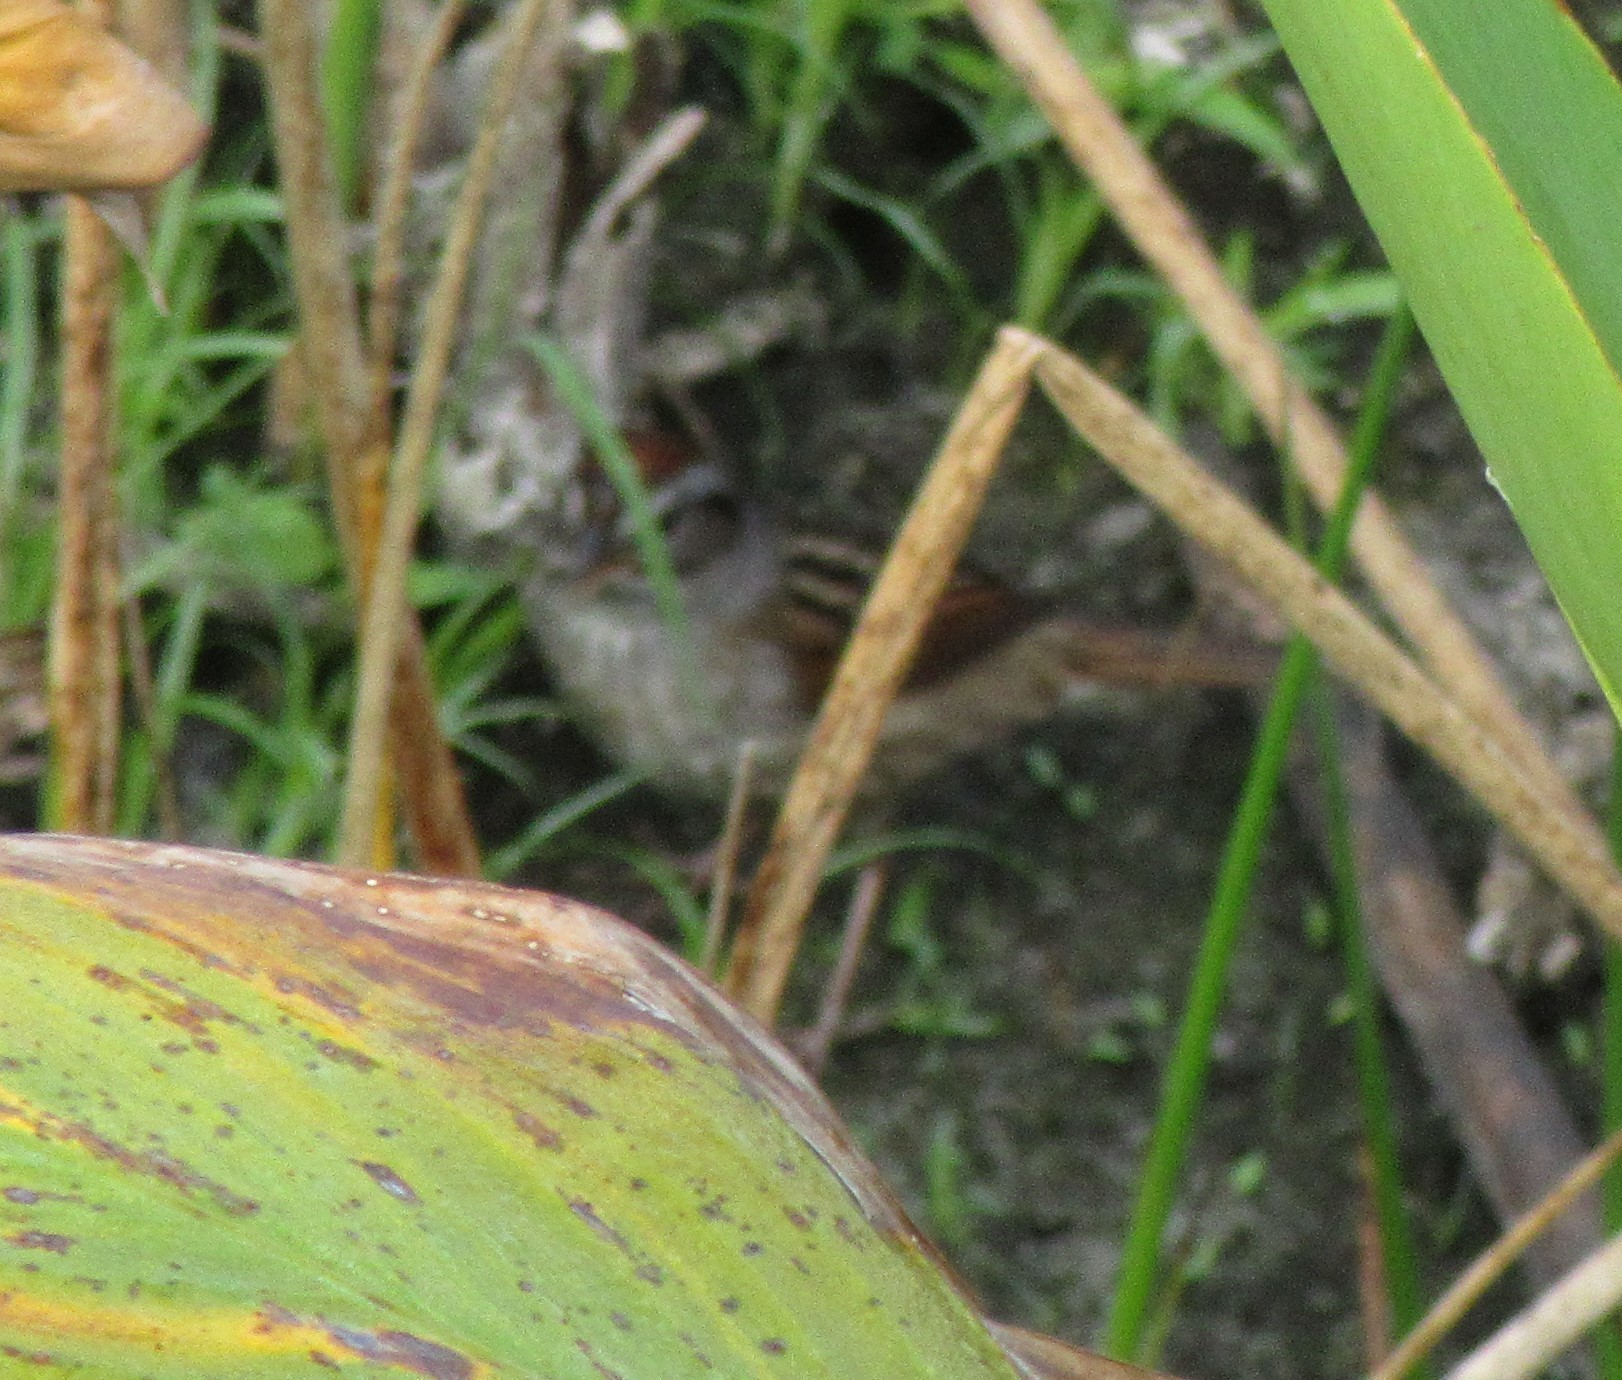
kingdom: Animalia
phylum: Chordata
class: Aves
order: Passeriformes
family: Passerellidae
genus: Melospiza
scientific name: Melospiza georgiana
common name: Swamp sparrow
